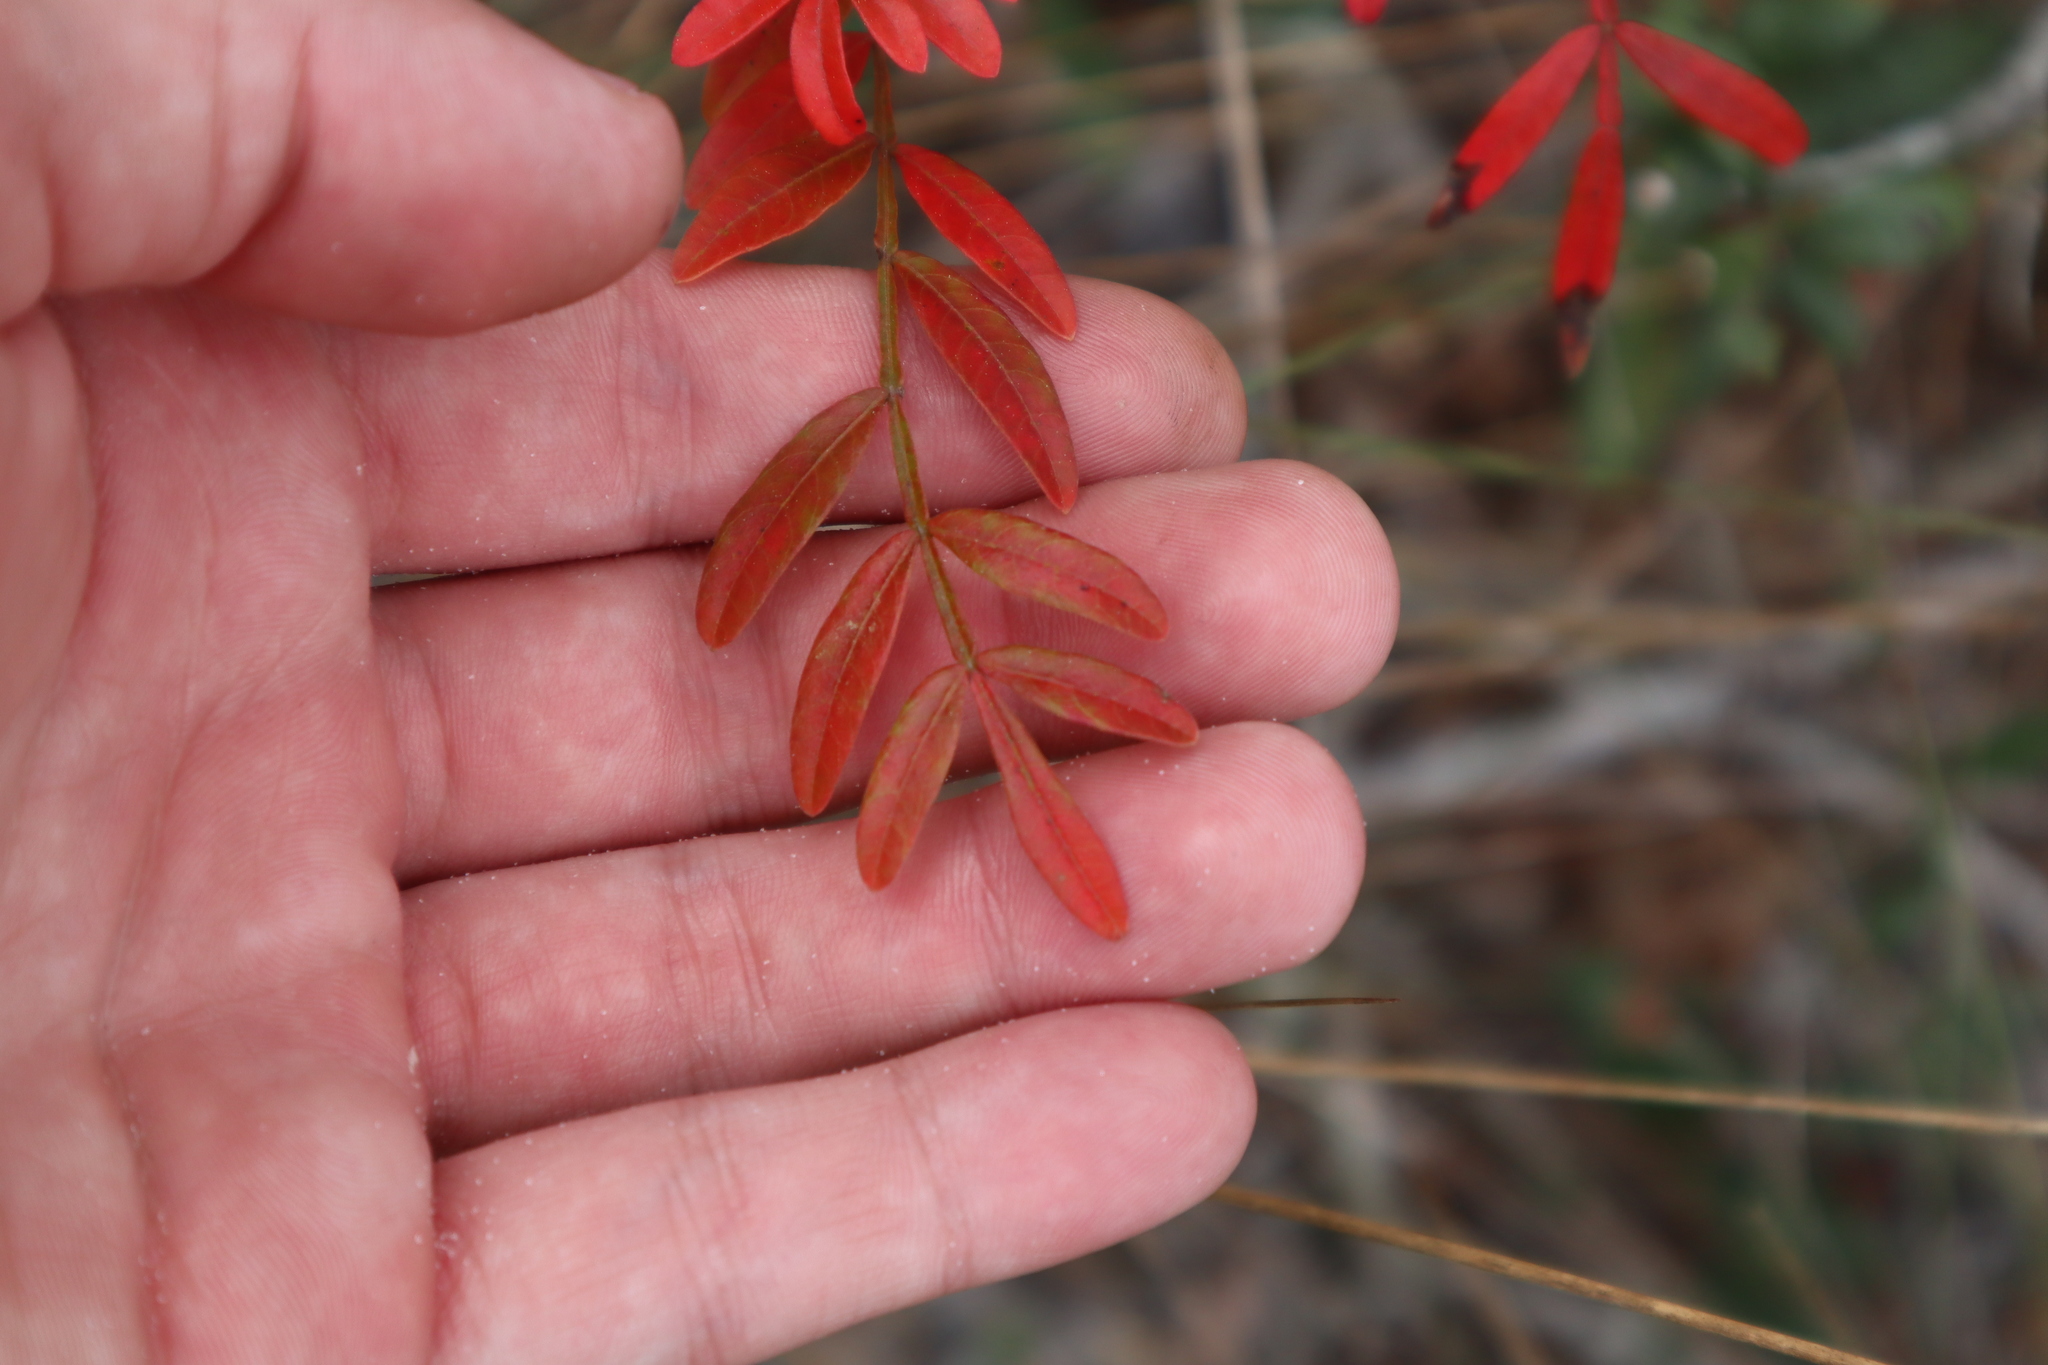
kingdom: Plantae
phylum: Tracheophyta
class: Magnoliopsida
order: Sapindales
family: Anacardiaceae
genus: Rhus
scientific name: Rhus copallina
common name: Shining sumac
